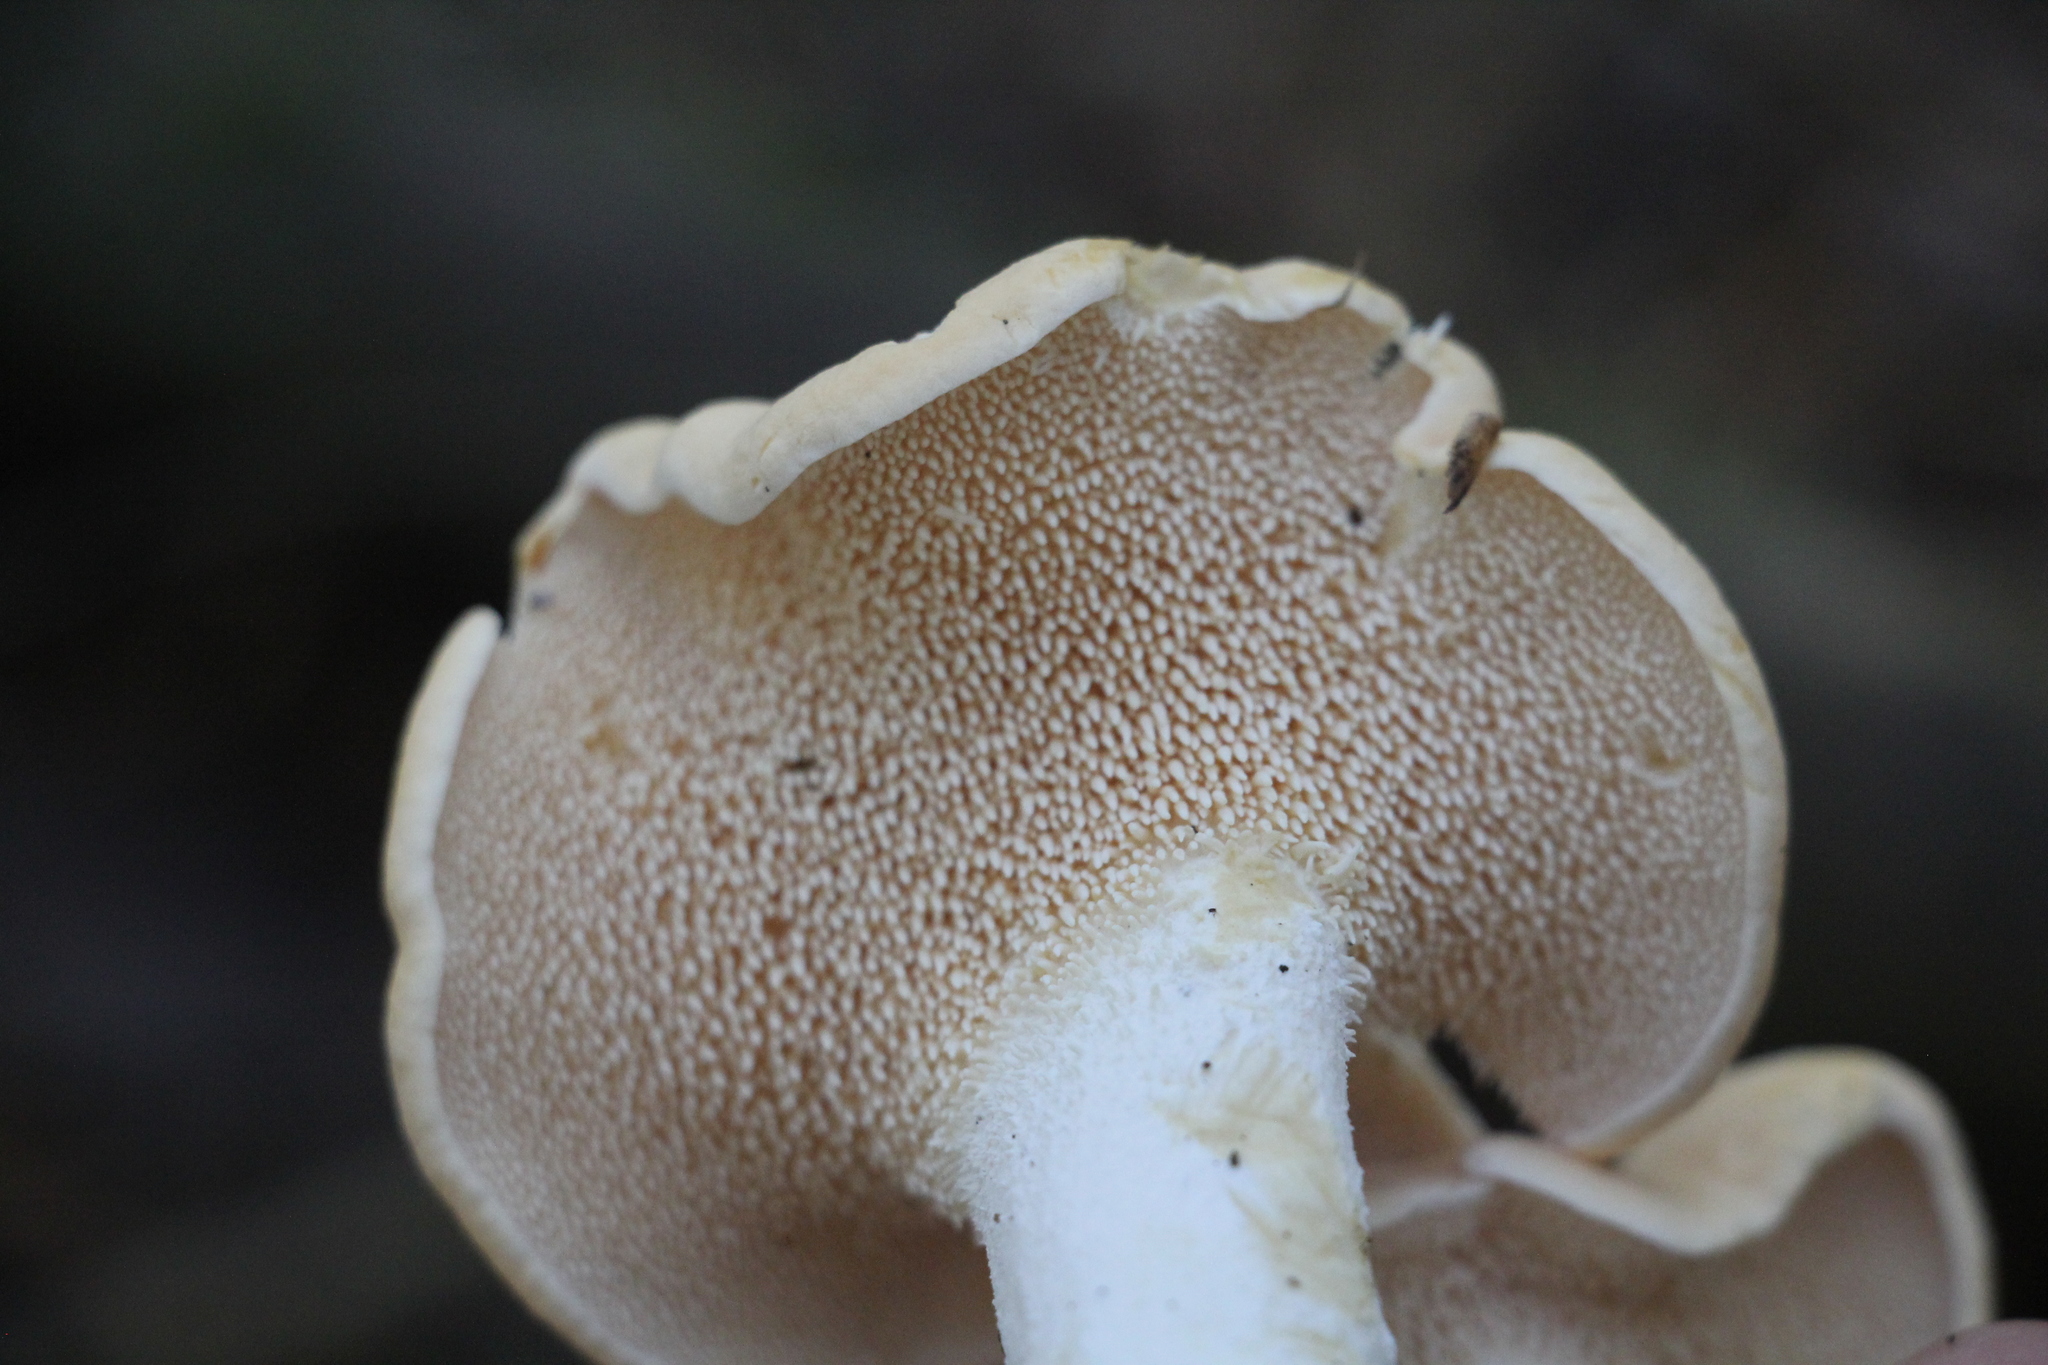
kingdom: Fungi
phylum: Basidiomycota
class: Agaricomycetes
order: Cantharellales
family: Hydnaceae
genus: Hydnum
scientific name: Hydnum repandum
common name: Wood hedgehog
